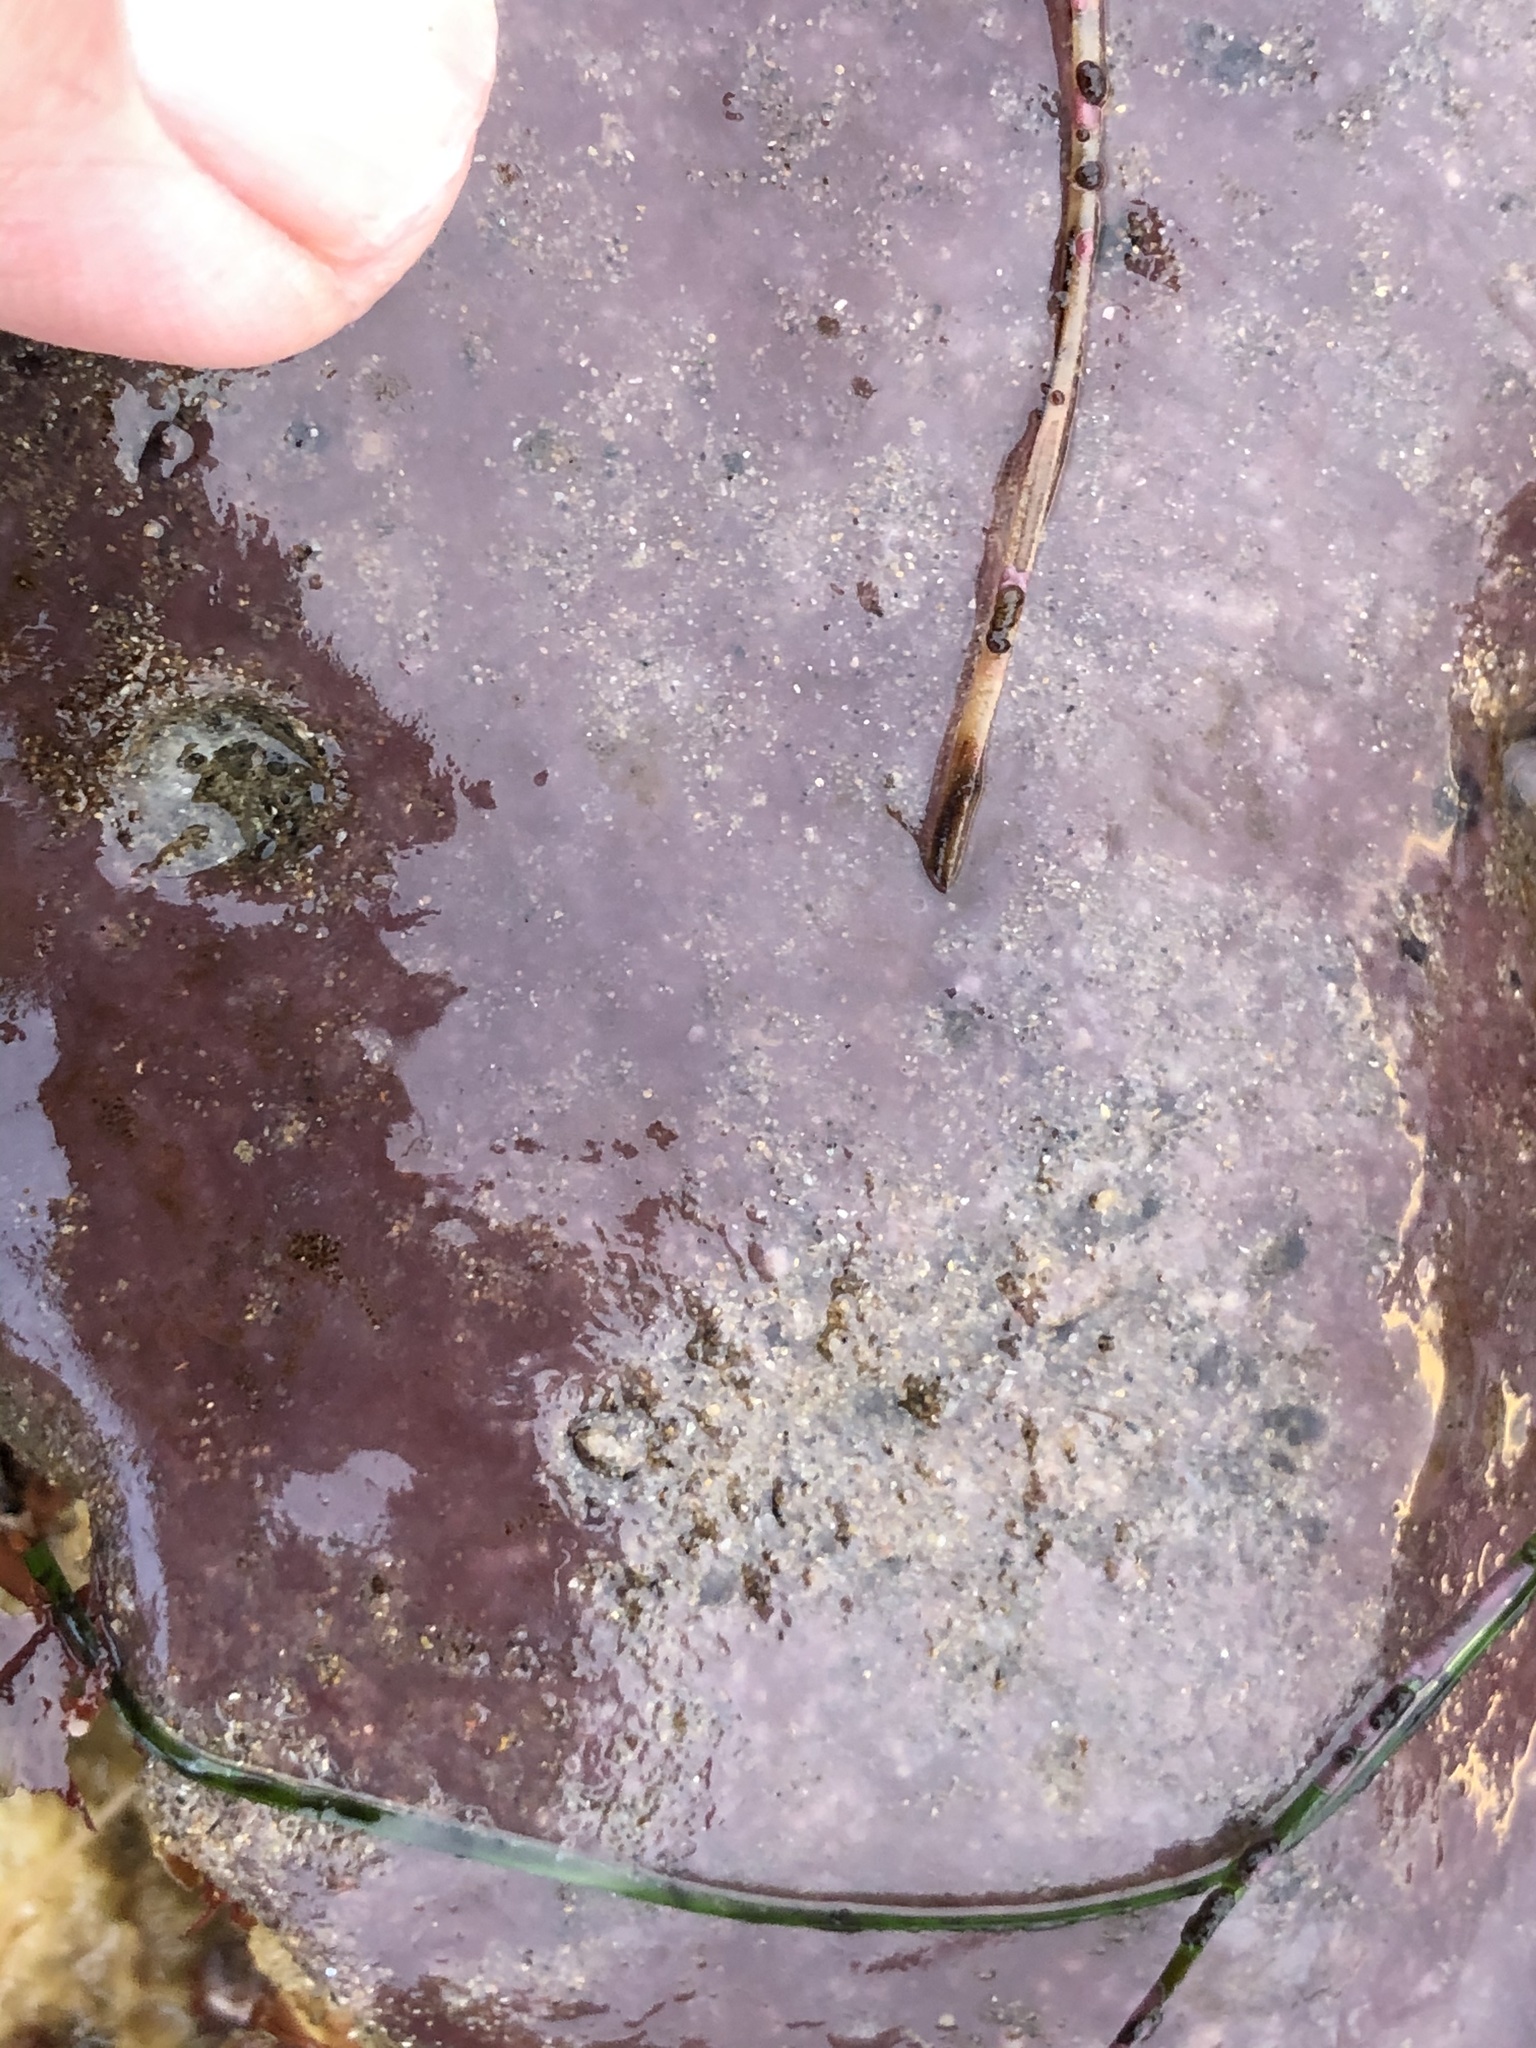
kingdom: Animalia
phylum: Chordata
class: Ascidiacea
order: Aplousobranchia
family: Polycitoridae
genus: Eudistoma
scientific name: Eudistoma psammion
